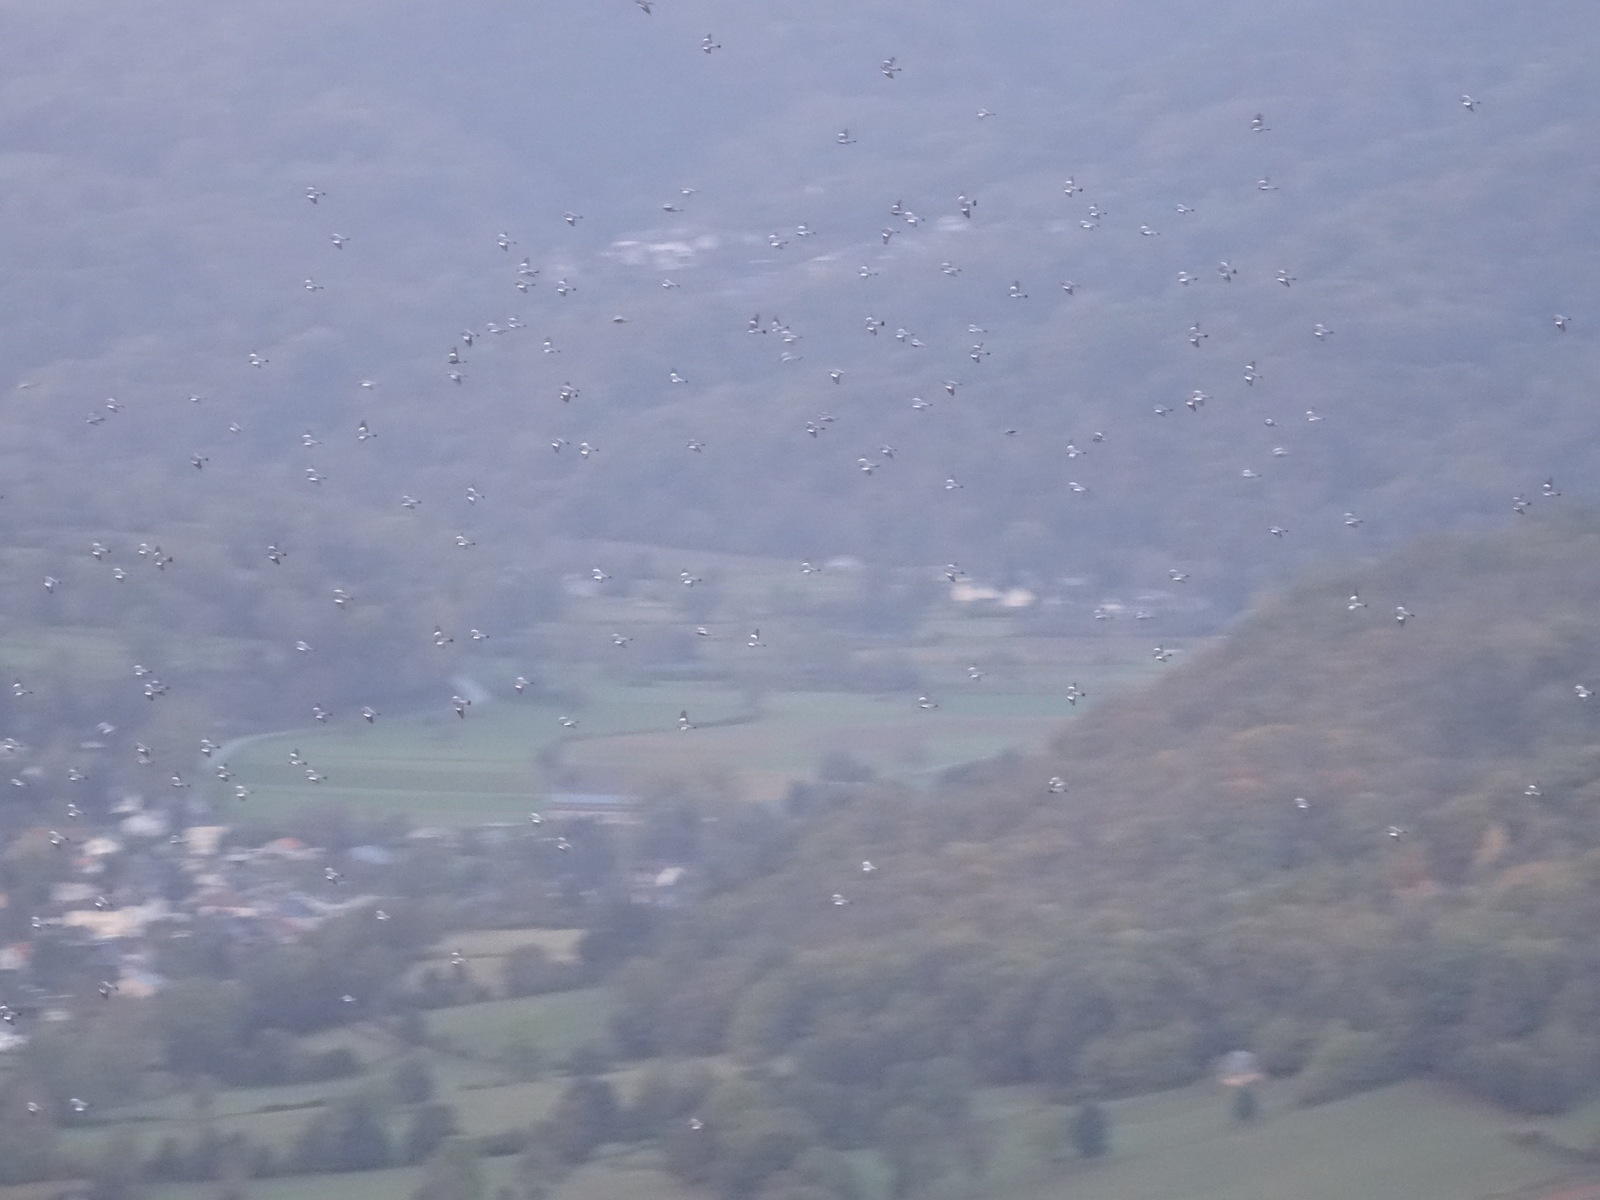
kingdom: Animalia
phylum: Chordata
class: Aves
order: Columbiformes
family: Columbidae
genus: Columba
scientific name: Columba palumbus
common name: Common wood pigeon
